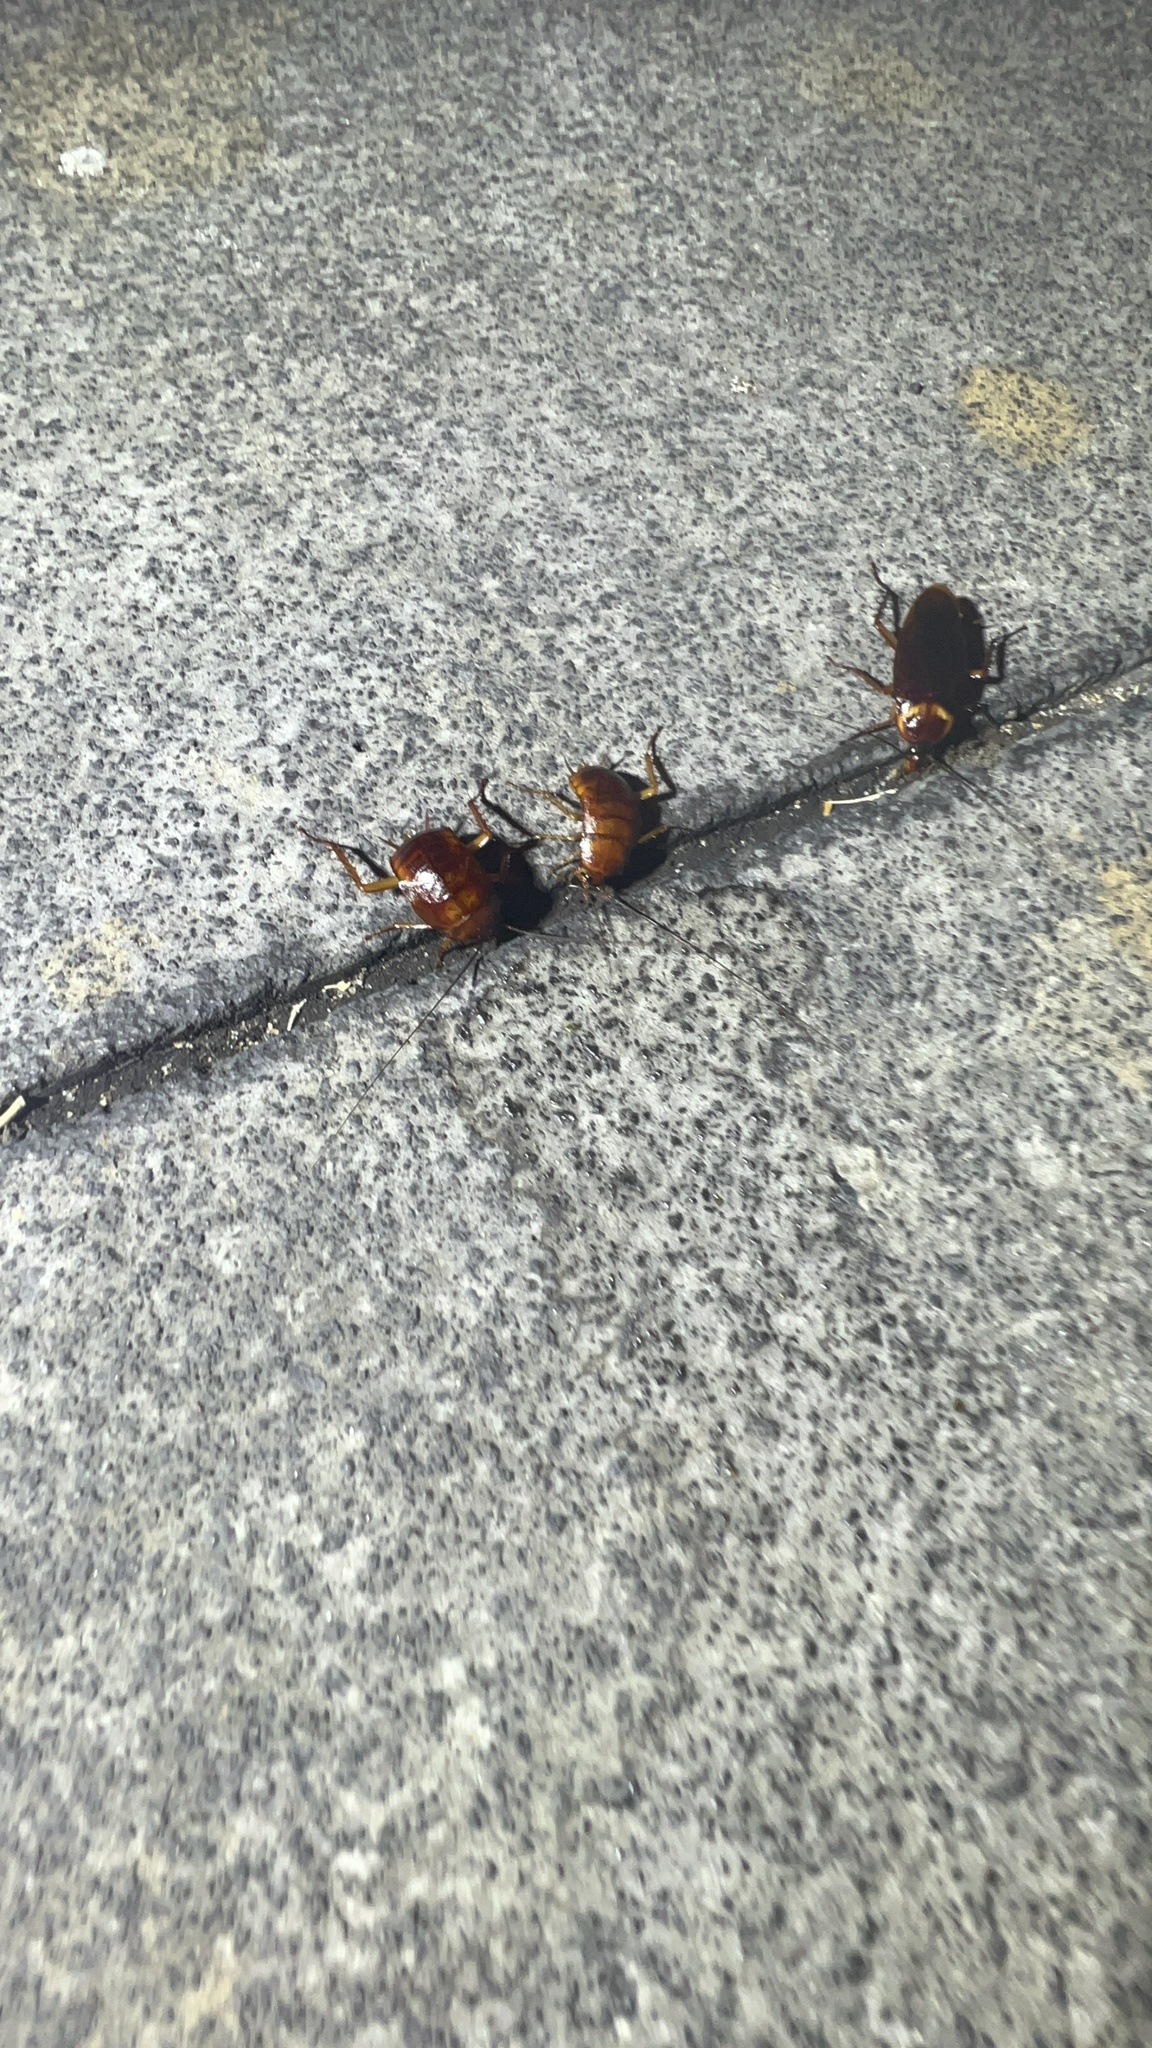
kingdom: Animalia
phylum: Arthropoda
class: Insecta
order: Blattodea
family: Blattidae
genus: Periplaneta
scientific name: Periplaneta americana
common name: American cockroach
